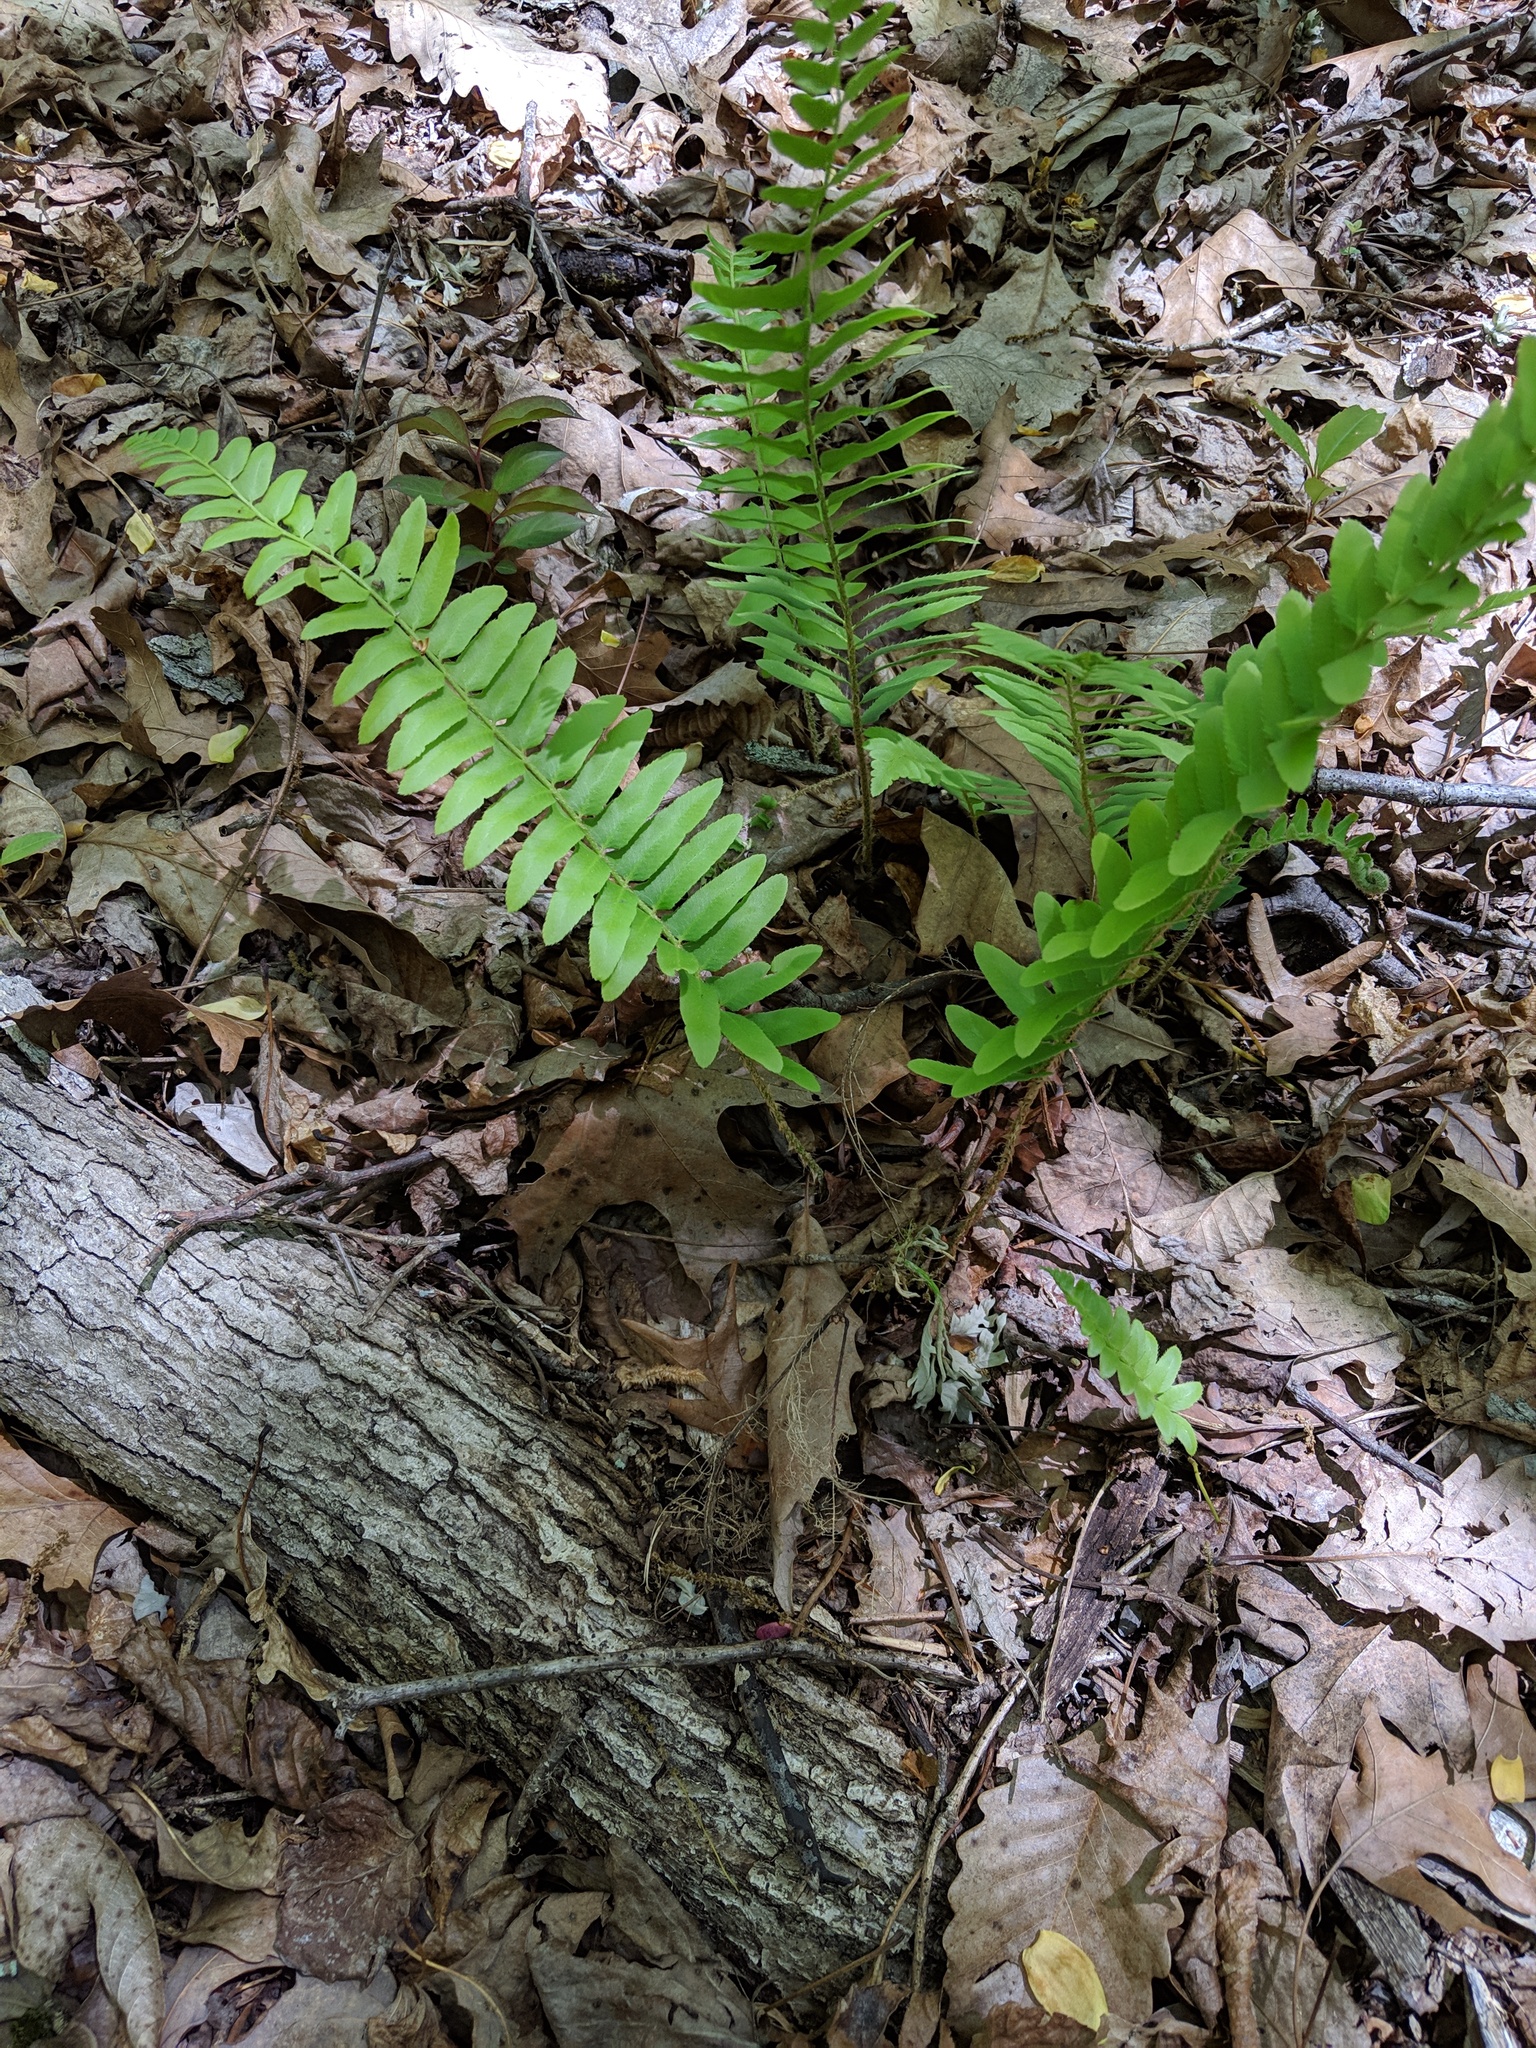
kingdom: Plantae
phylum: Tracheophyta
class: Polypodiopsida
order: Polypodiales
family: Dryopteridaceae
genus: Polystichum
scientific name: Polystichum acrostichoides
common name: Christmas fern
